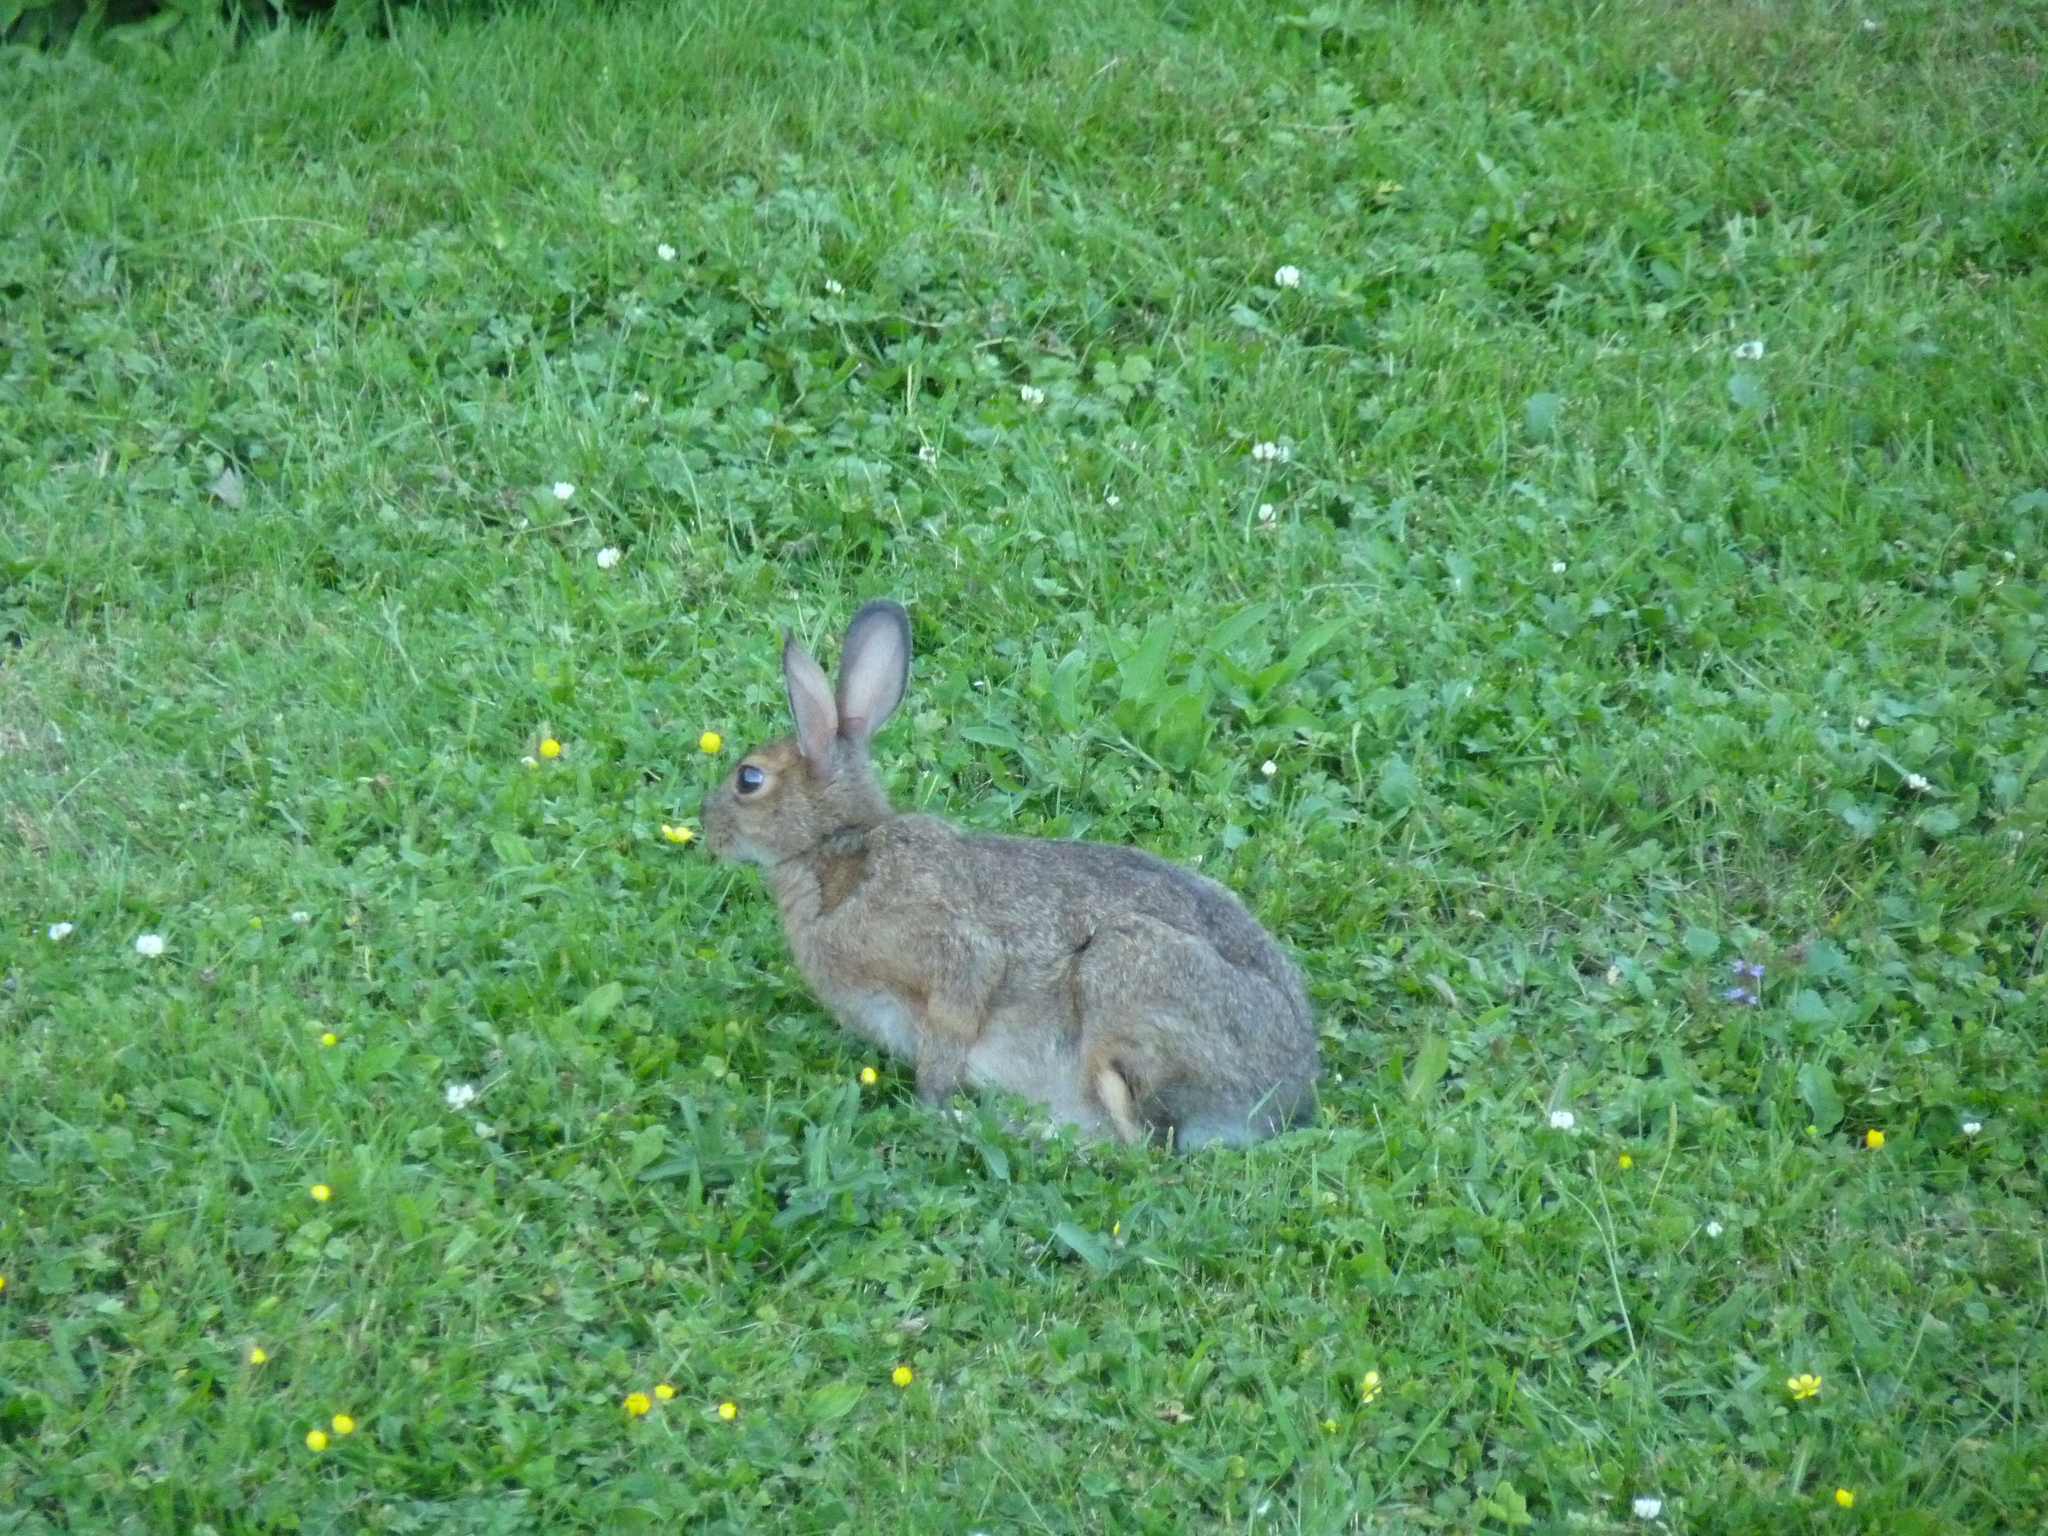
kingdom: Animalia
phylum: Chordata
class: Mammalia
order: Lagomorpha
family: Leporidae
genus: Lepus
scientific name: Lepus americanus
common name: Snowshoe hare
